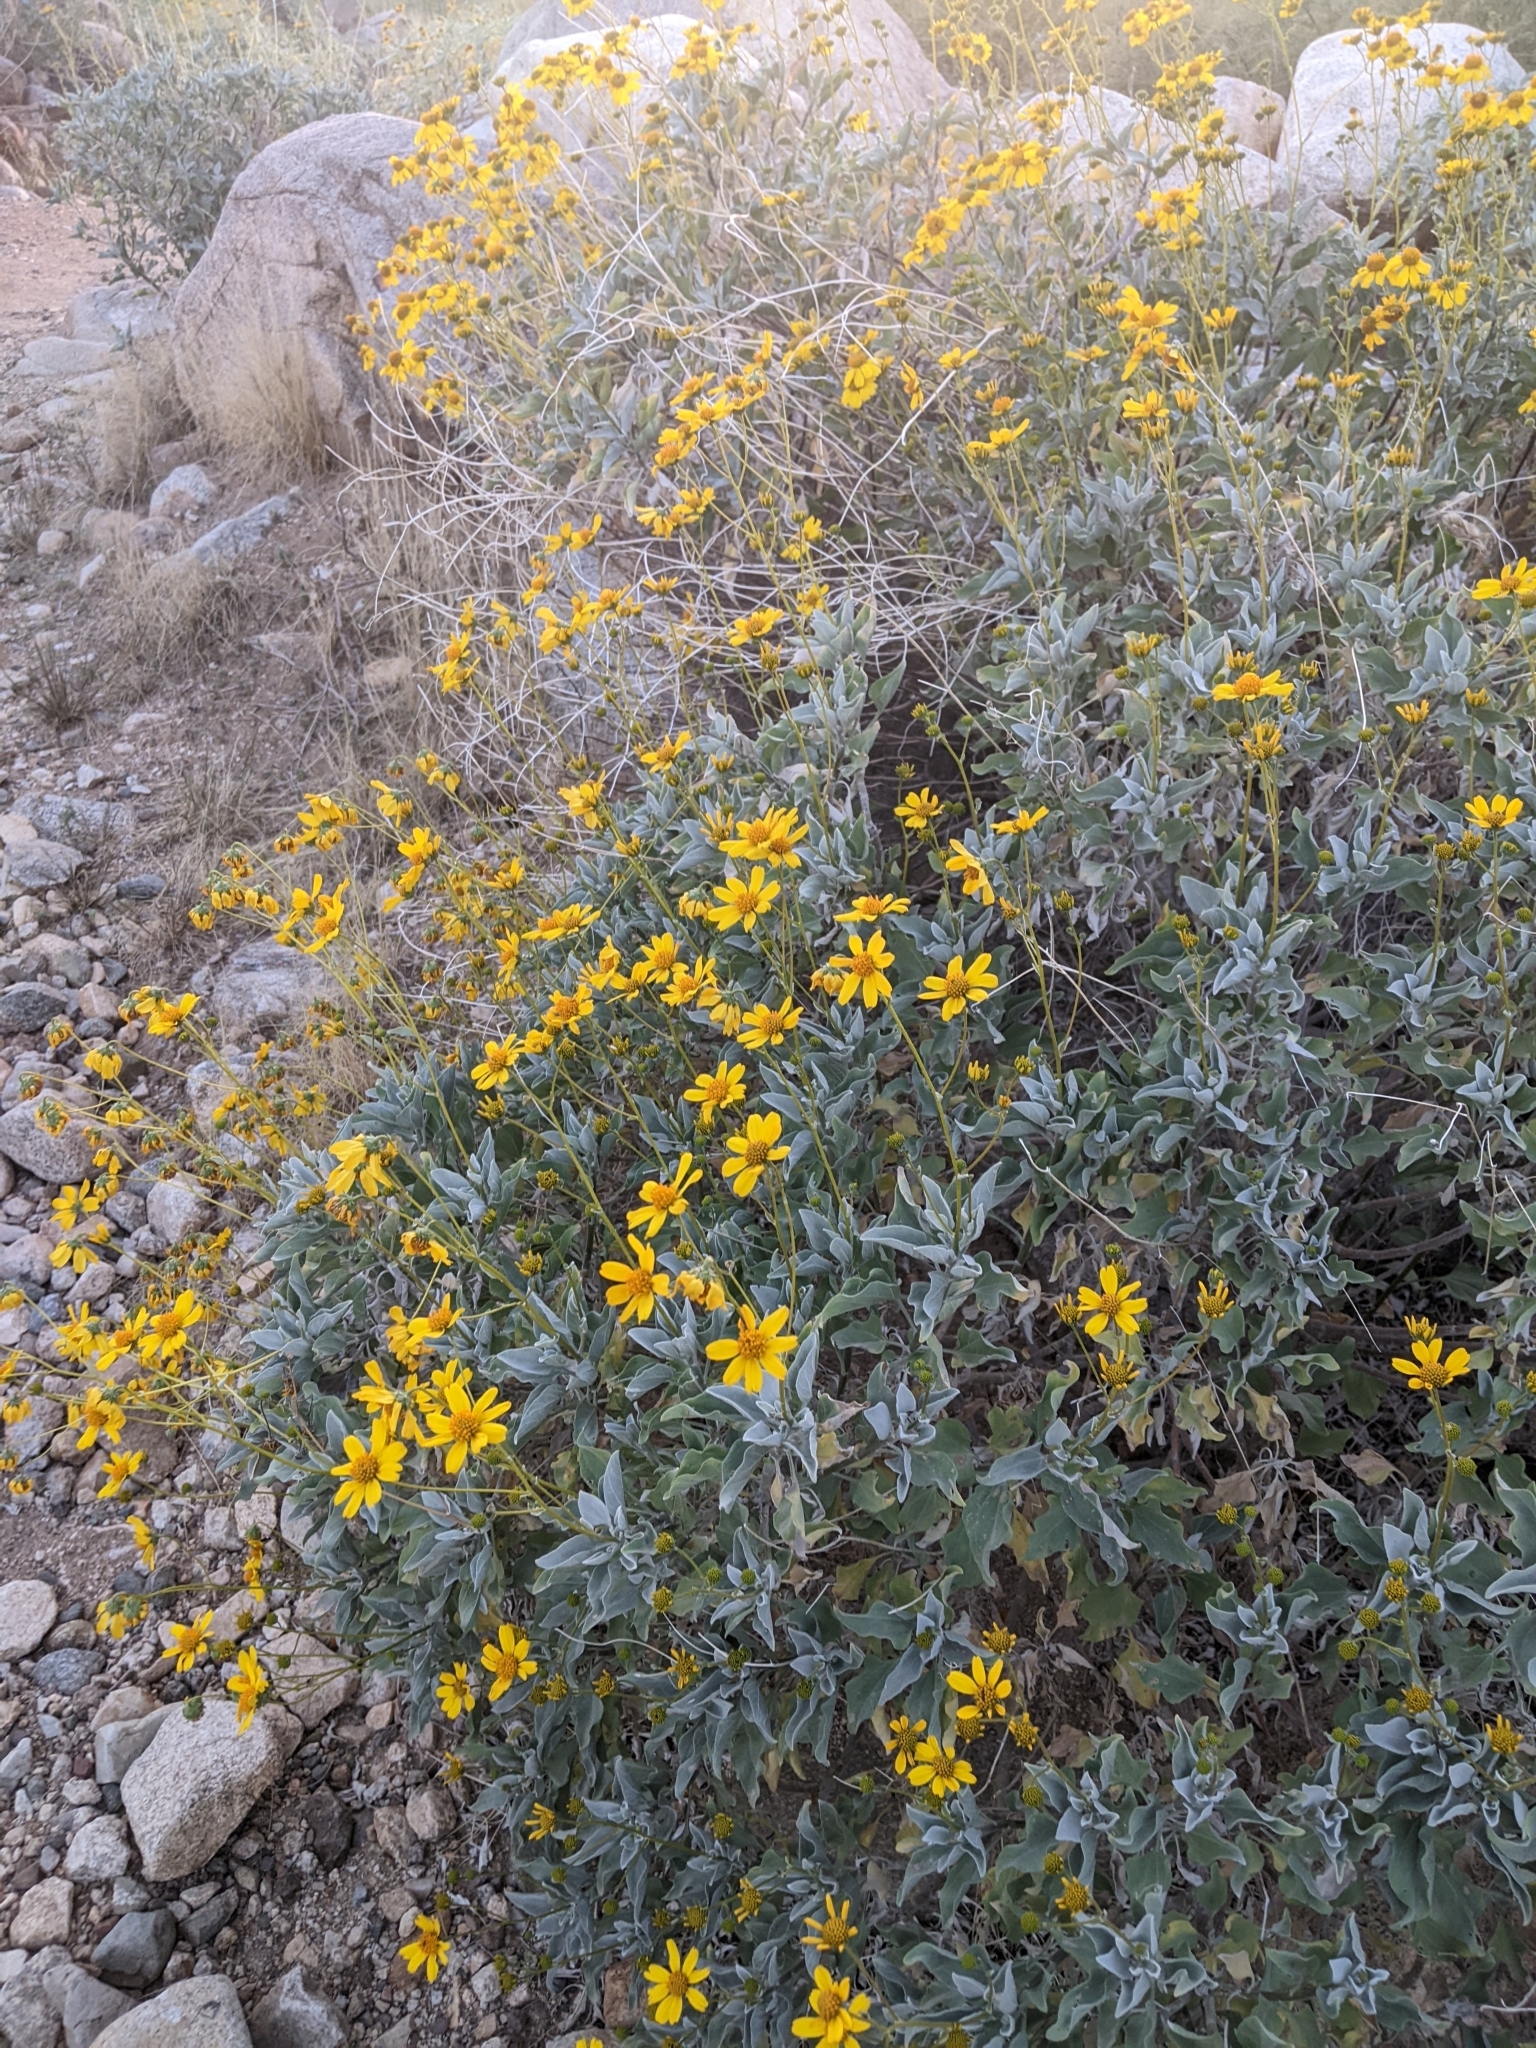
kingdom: Plantae
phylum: Tracheophyta
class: Magnoliopsida
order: Asterales
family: Asteraceae
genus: Encelia
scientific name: Encelia farinosa
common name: Brittlebush
